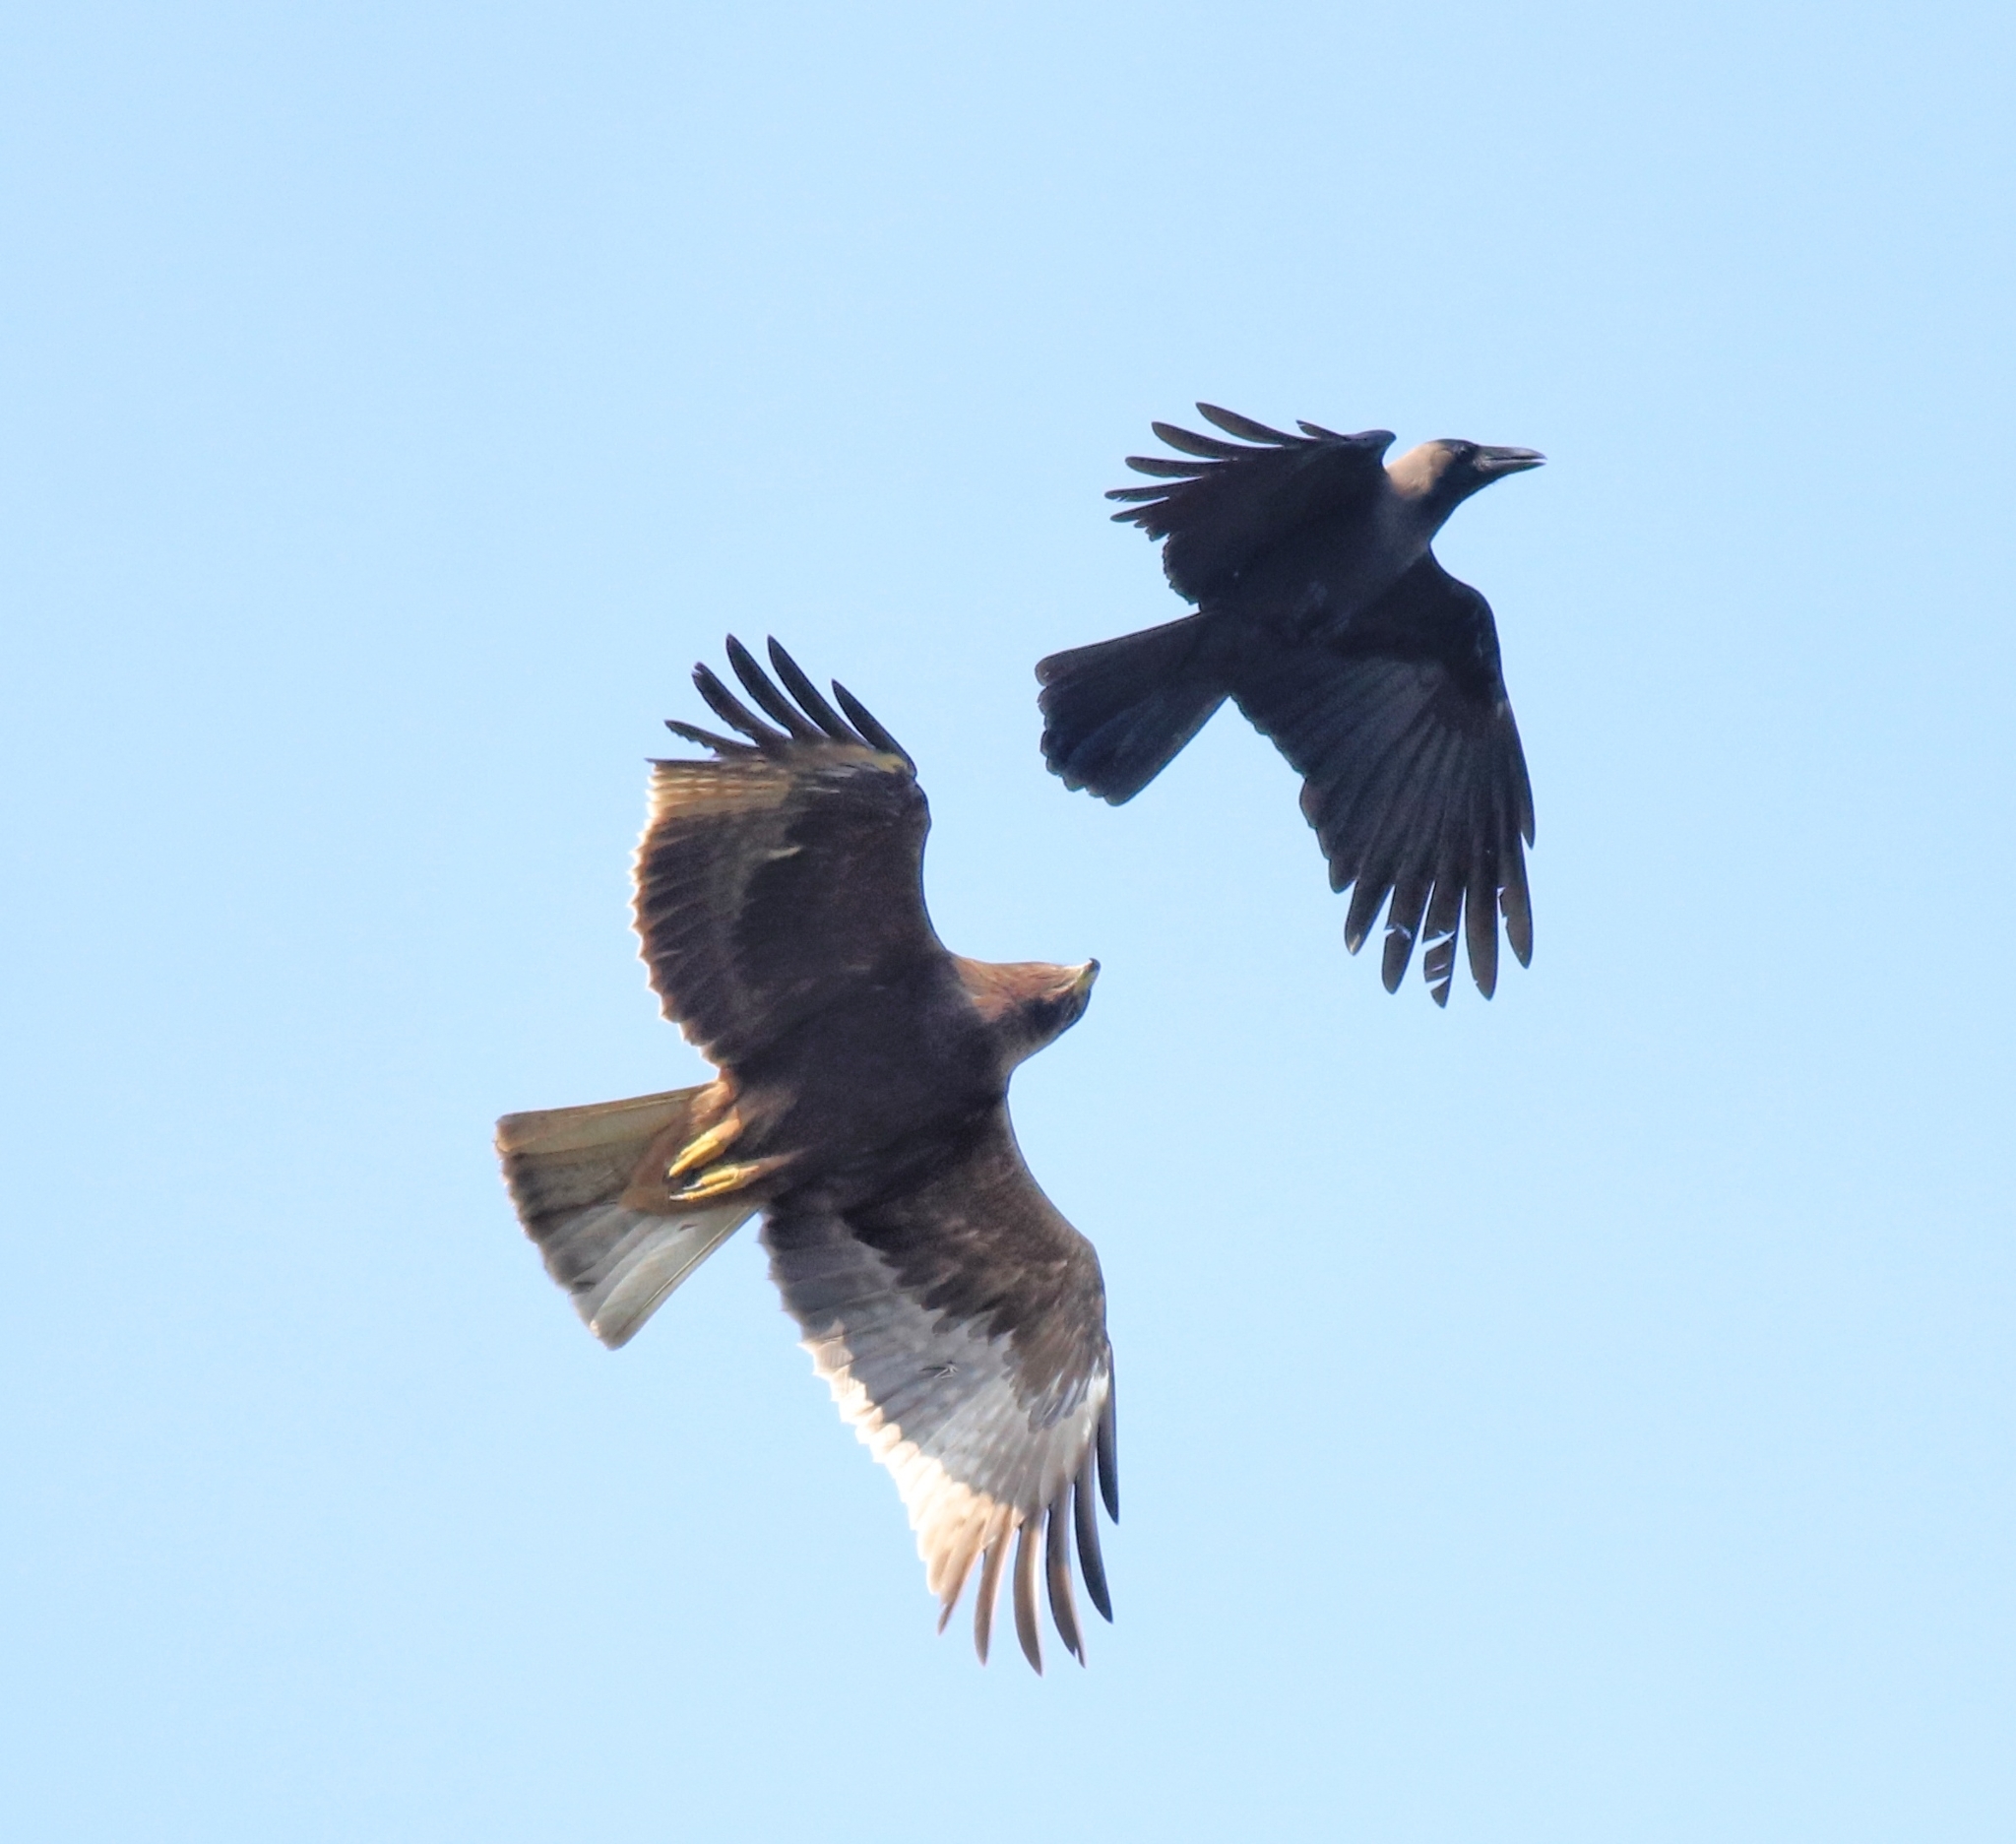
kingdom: Animalia
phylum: Chordata
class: Aves
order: Passeriformes
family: Corvidae
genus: Corvus
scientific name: Corvus splendens
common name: House crow
